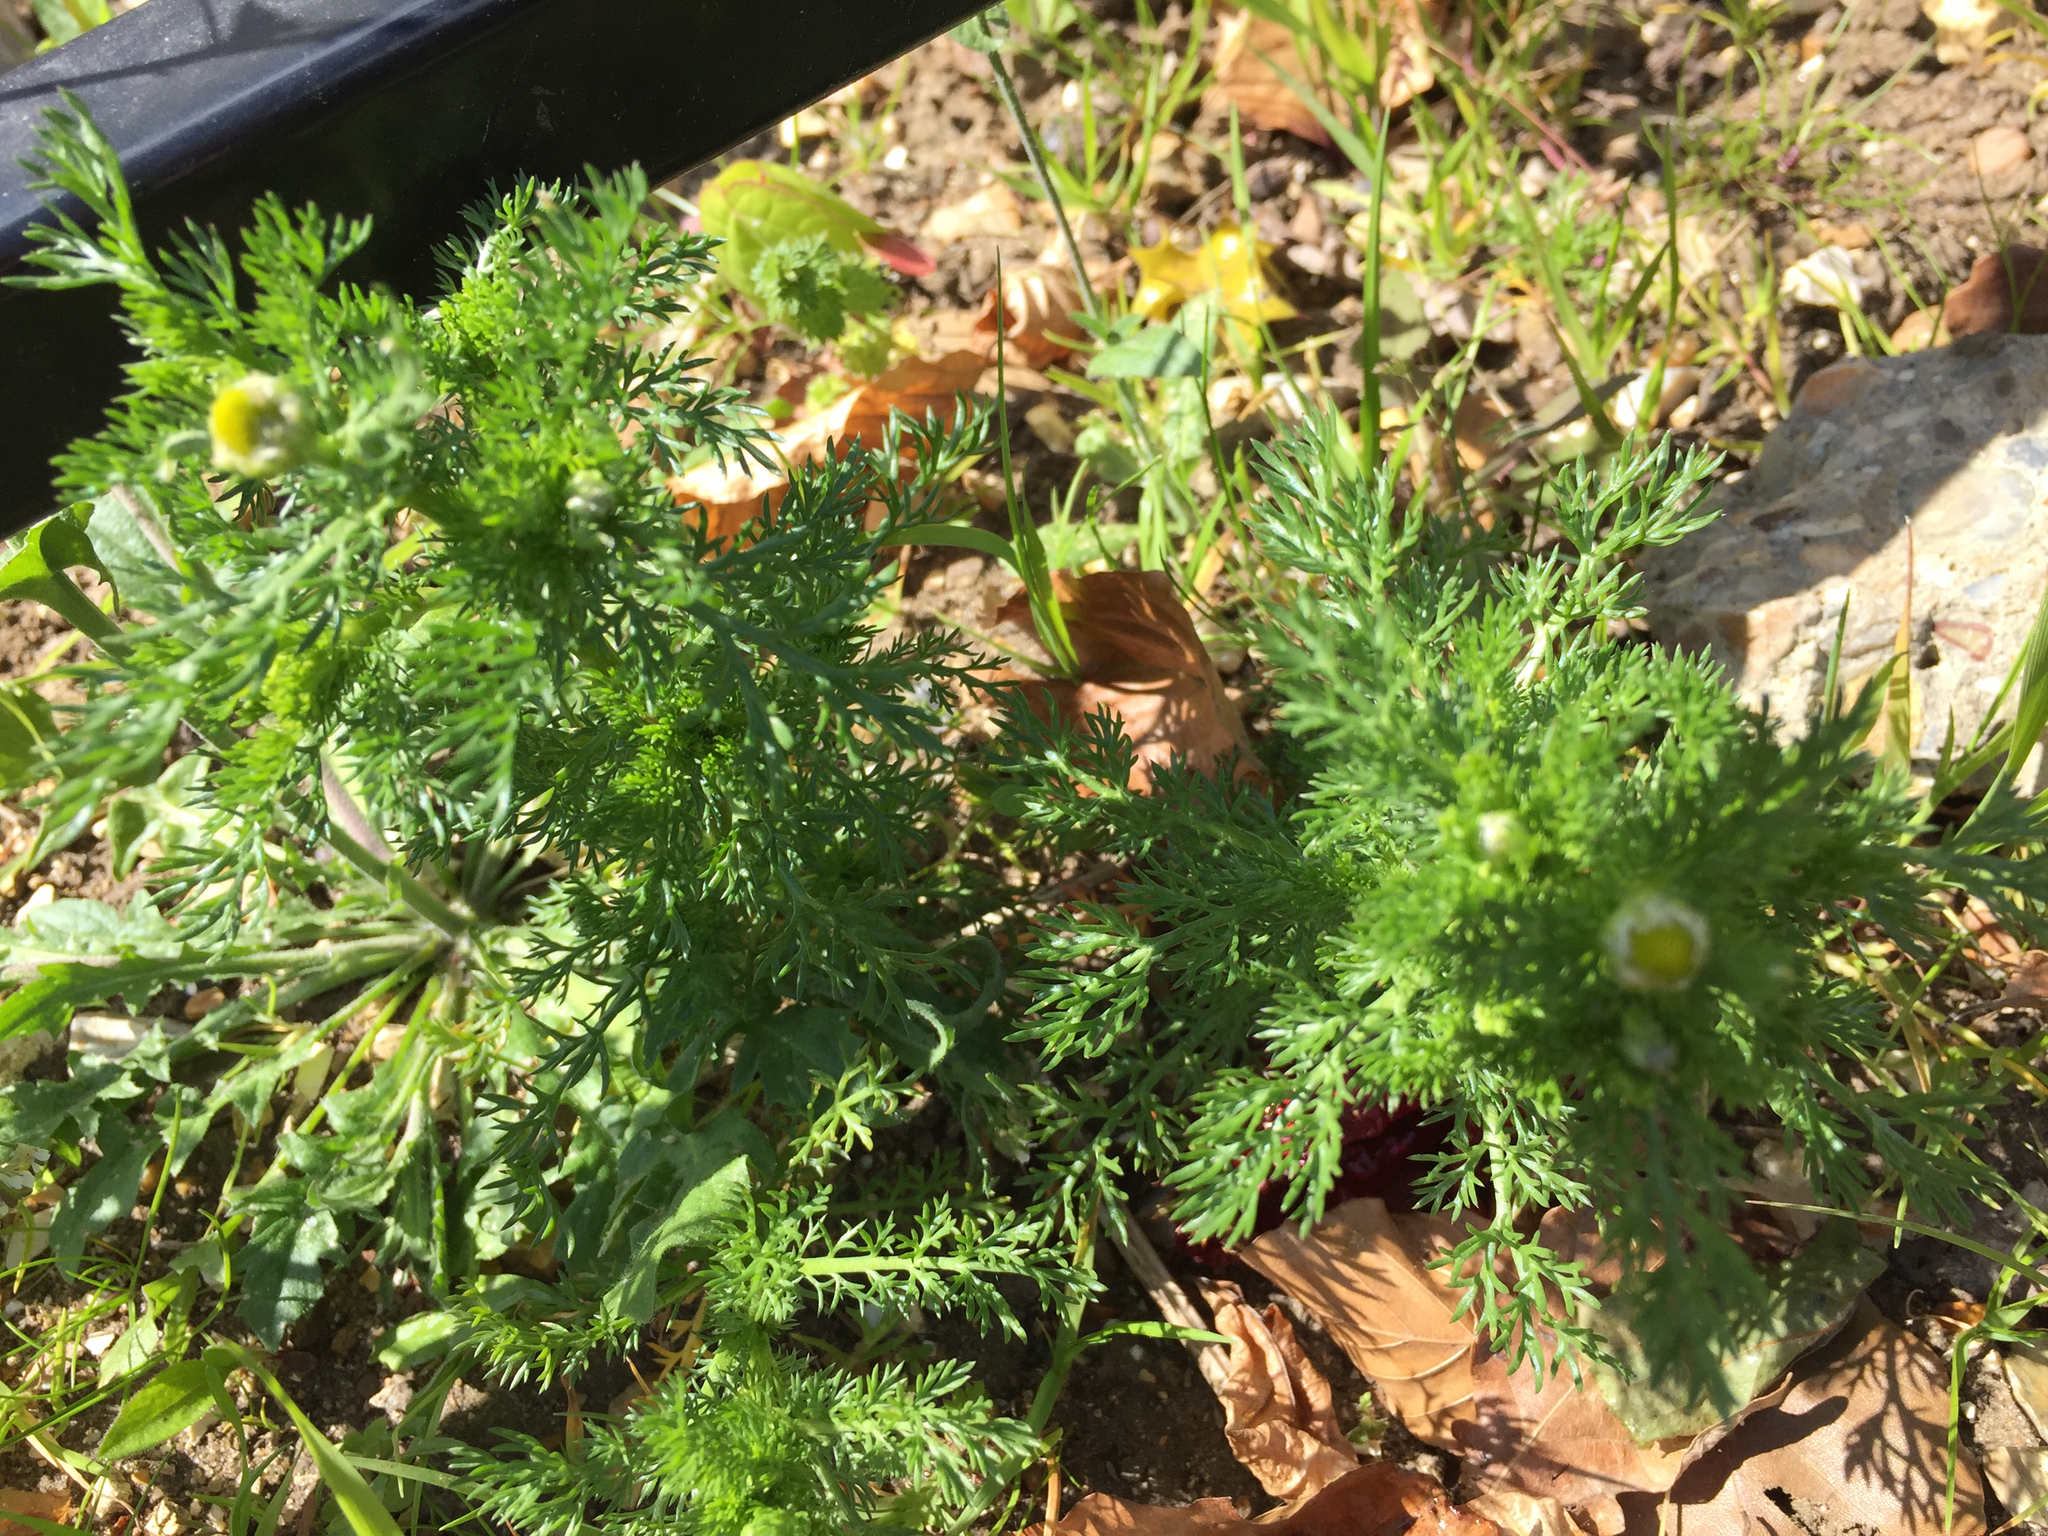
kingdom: Plantae
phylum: Tracheophyta
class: Magnoliopsida
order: Asterales
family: Asteraceae
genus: Matricaria
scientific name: Matricaria discoidea
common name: Disc mayweed
